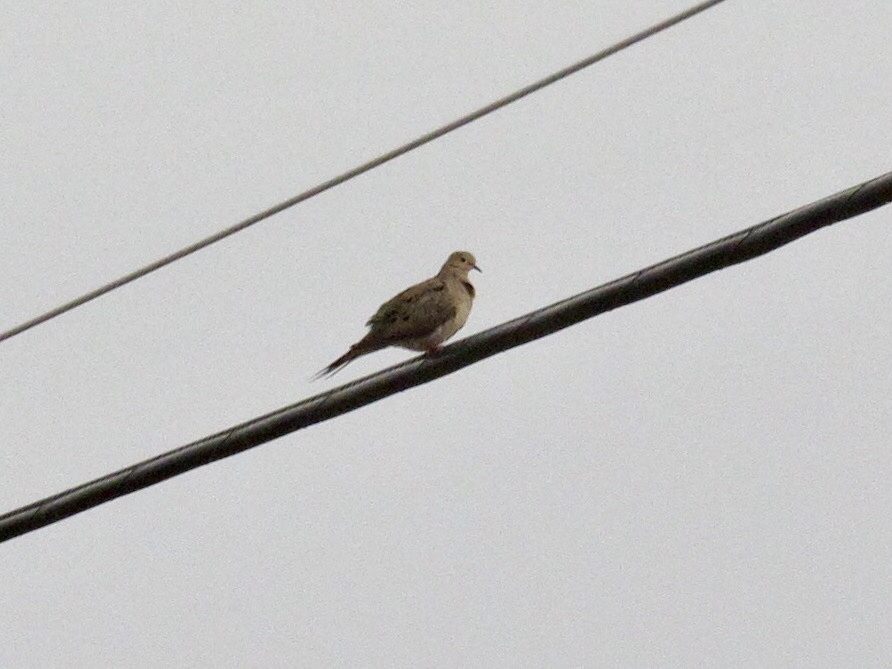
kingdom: Animalia
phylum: Chordata
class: Aves
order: Columbiformes
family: Columbidae
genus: Zenaida
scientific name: Zenaida macroura
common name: Mourning dove
